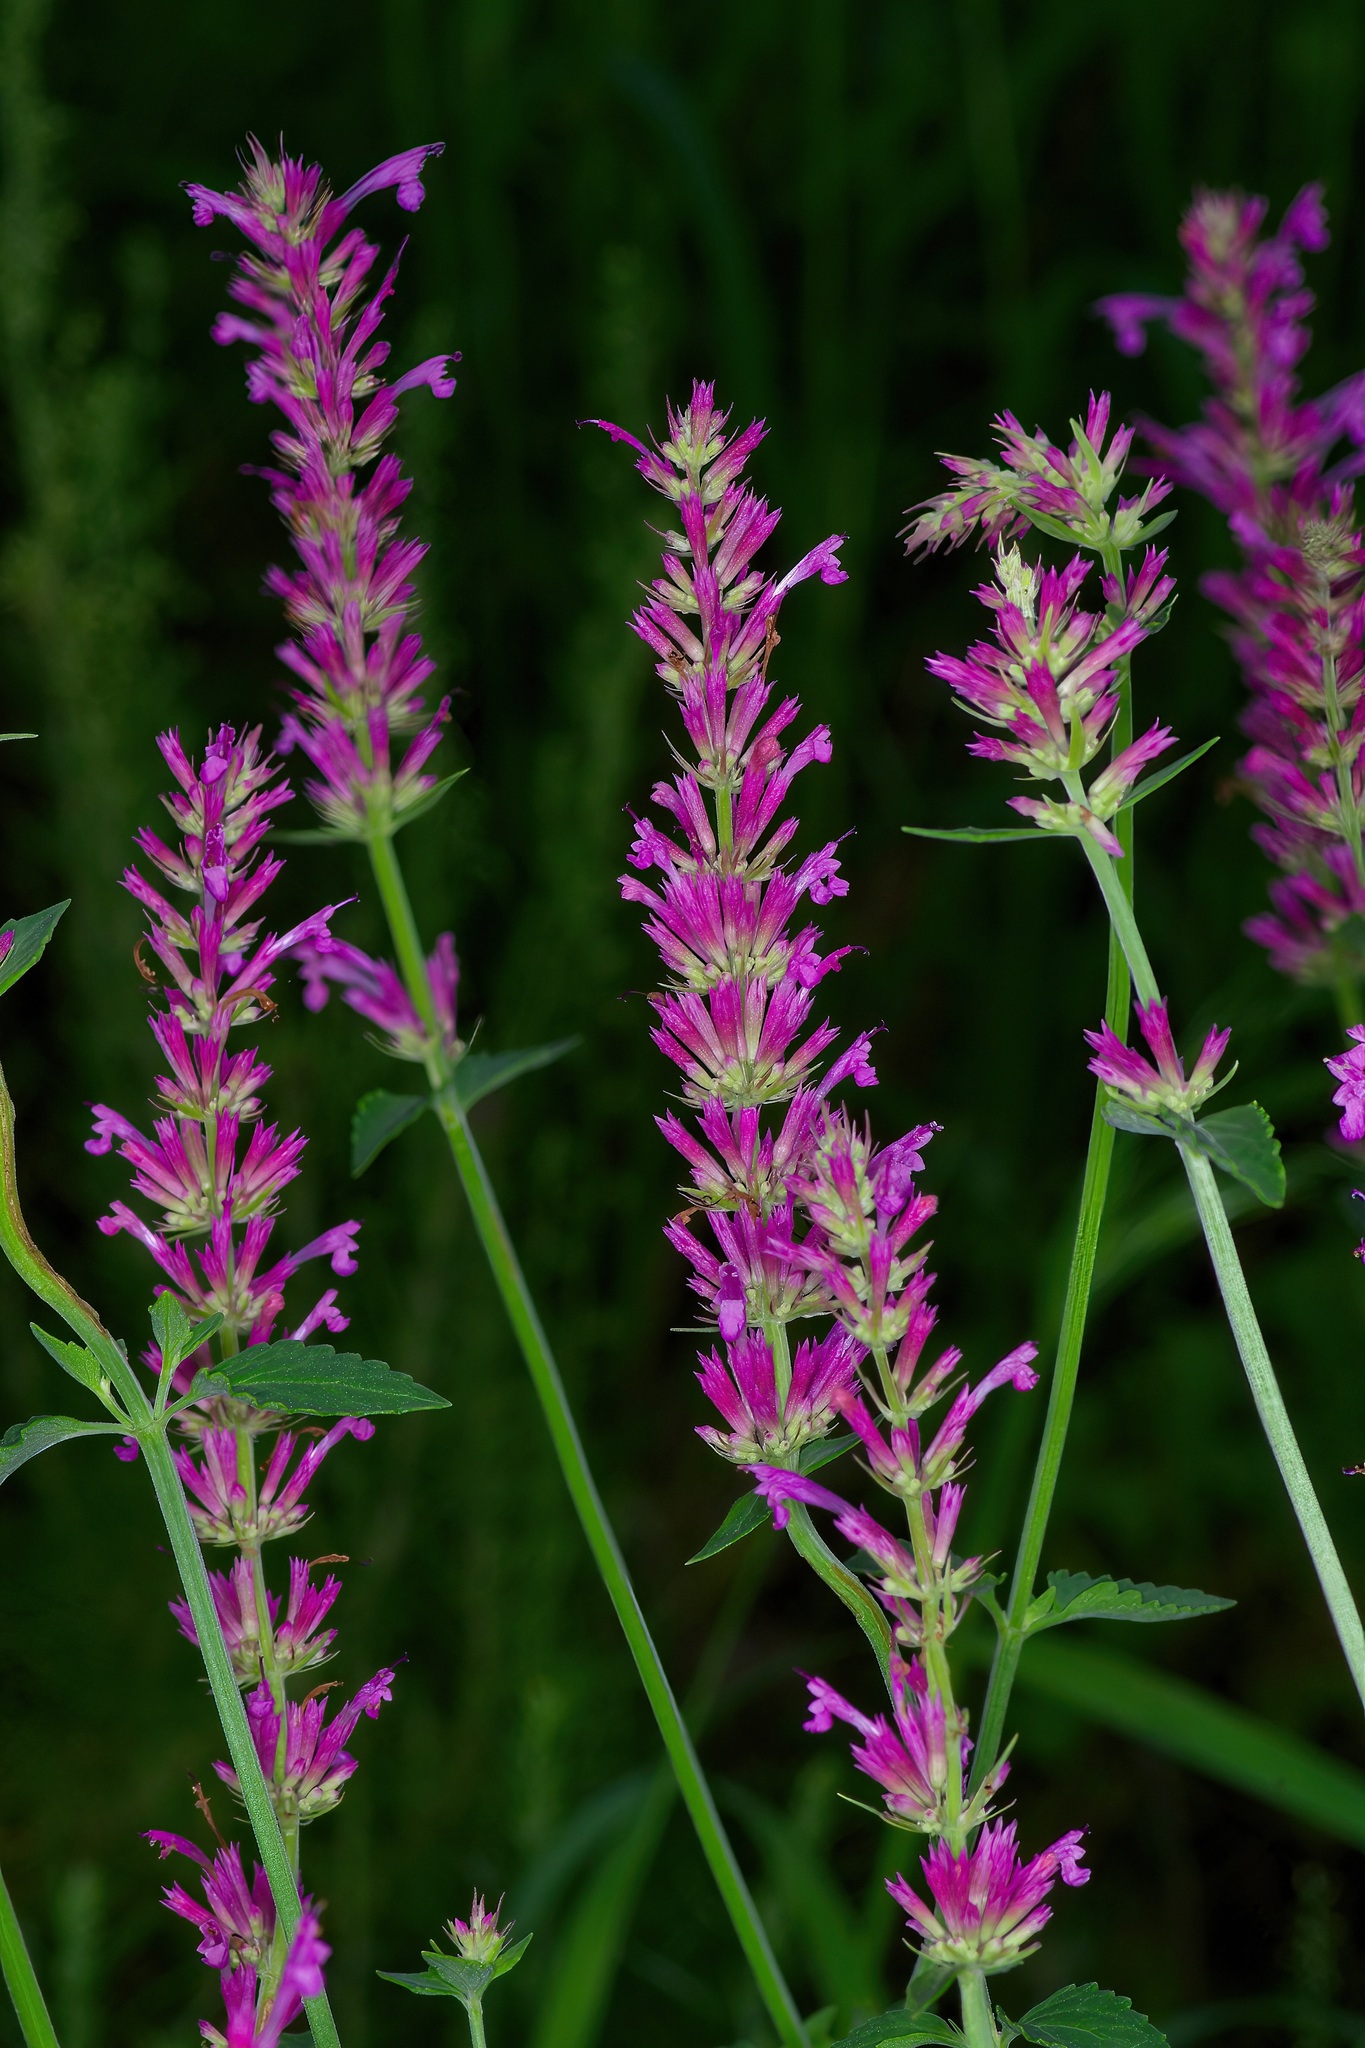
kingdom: Plantae
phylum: Tracheophyta
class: Magnoliopsida
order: Lamiales
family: Lamiaceae
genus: Agastache
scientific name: Agastache pallidiflora
